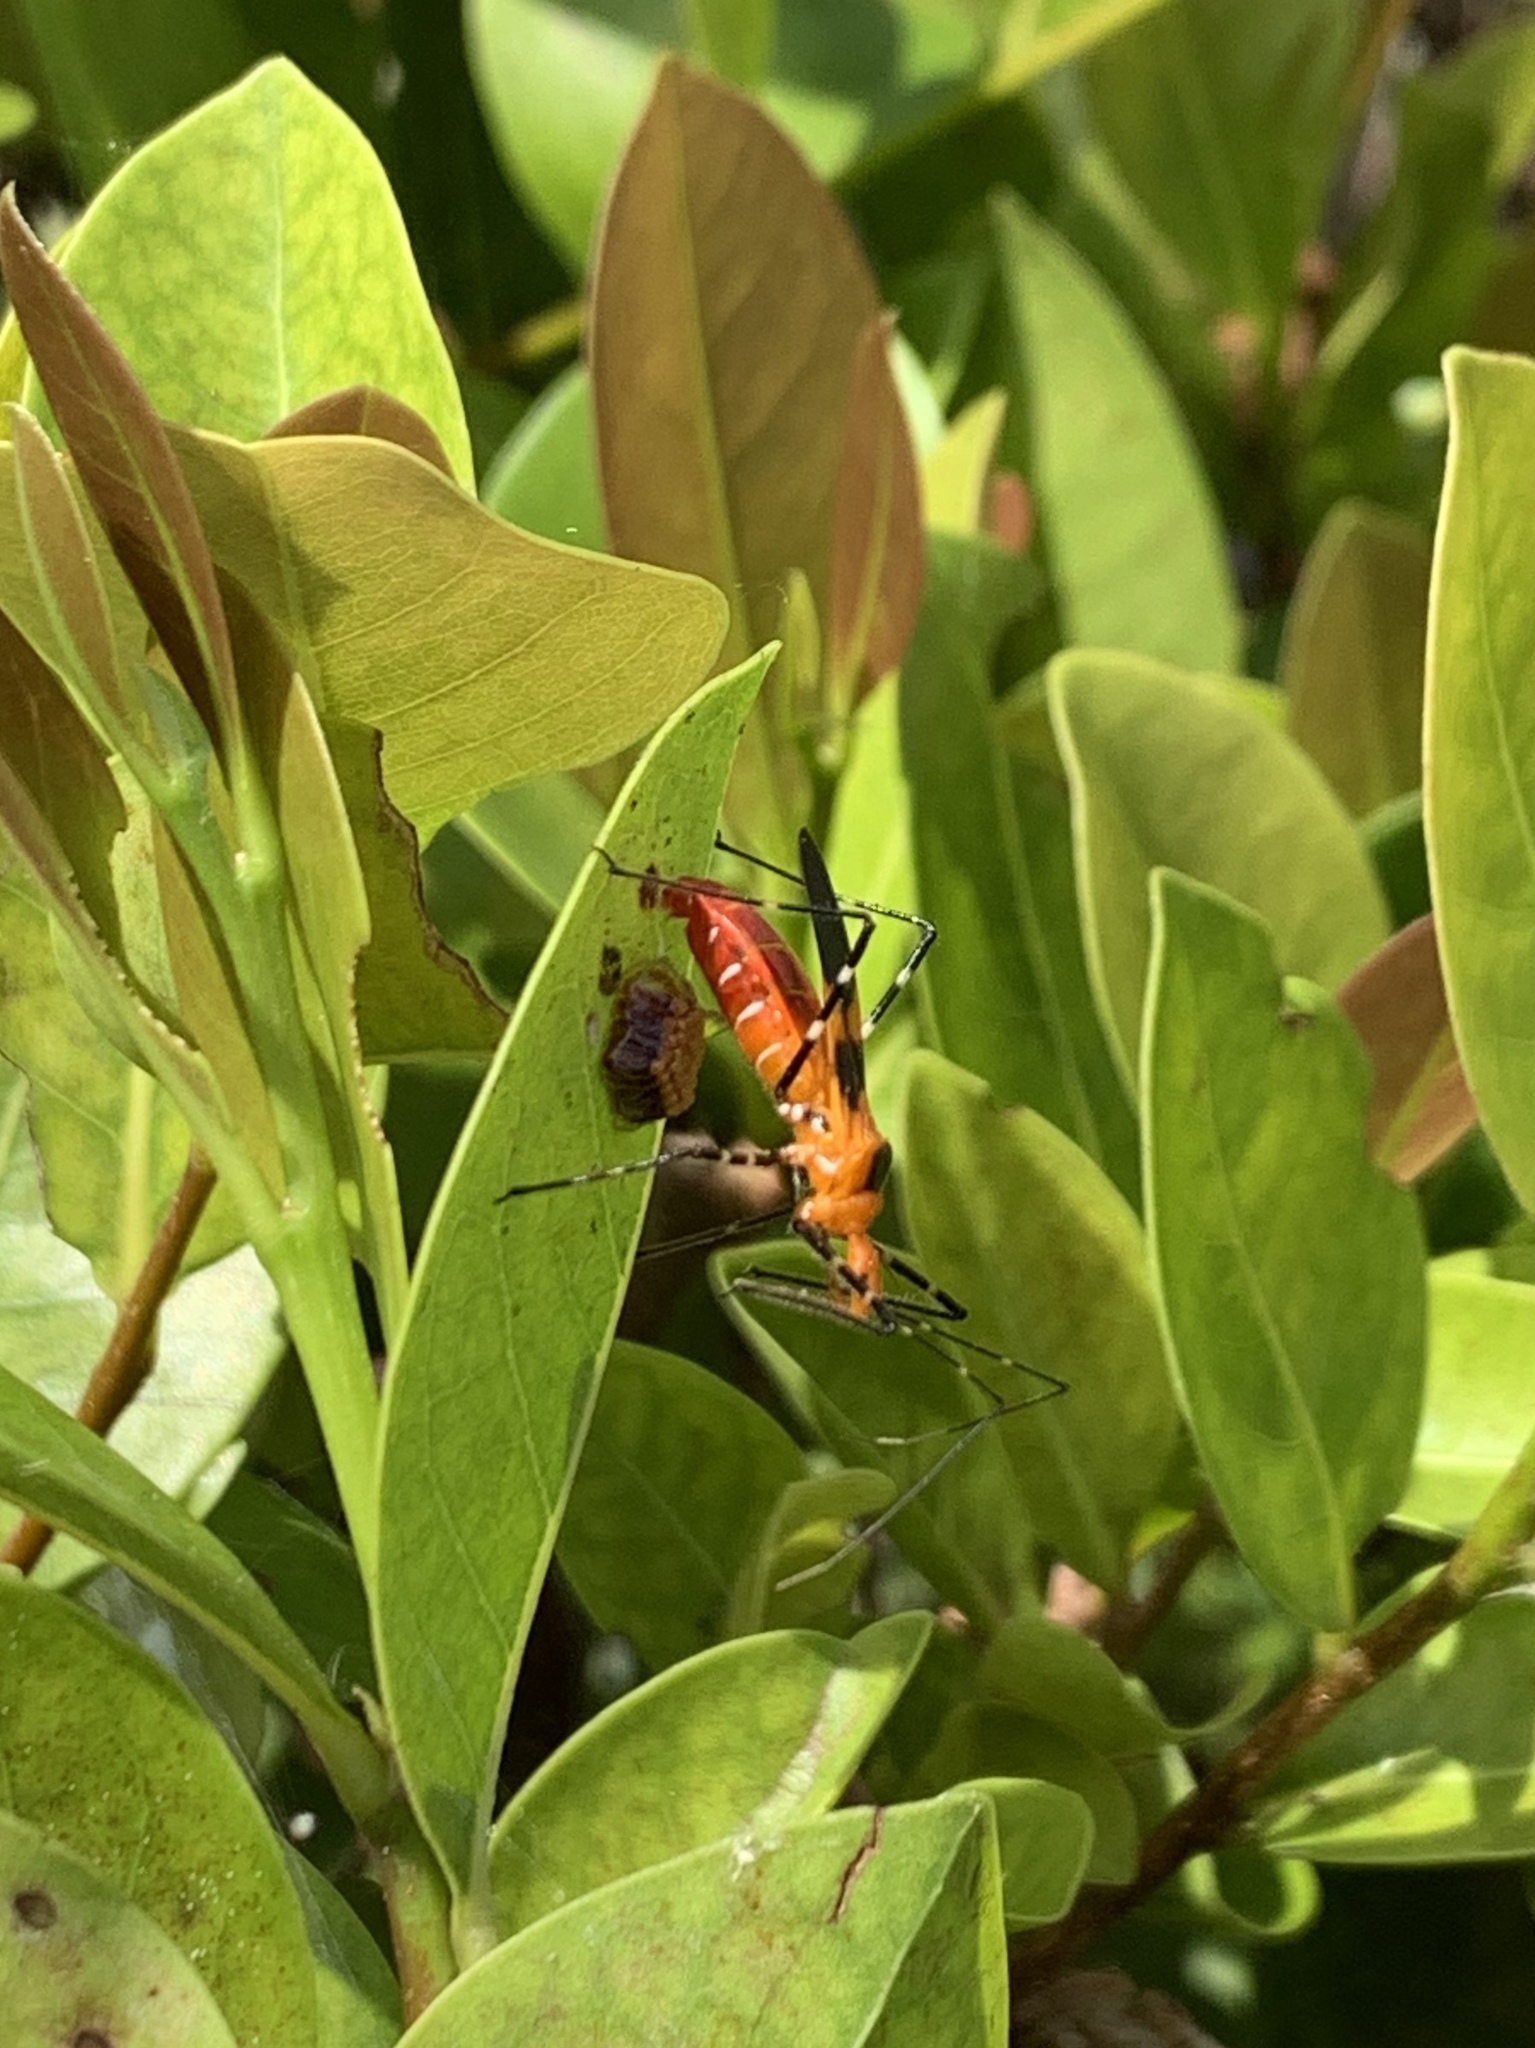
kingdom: Animalia
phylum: Arthropoda
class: Insecta
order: Hemiptera
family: Reduviidae
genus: Zelus
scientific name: Zelus longipes
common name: Milkweed assassin bug
